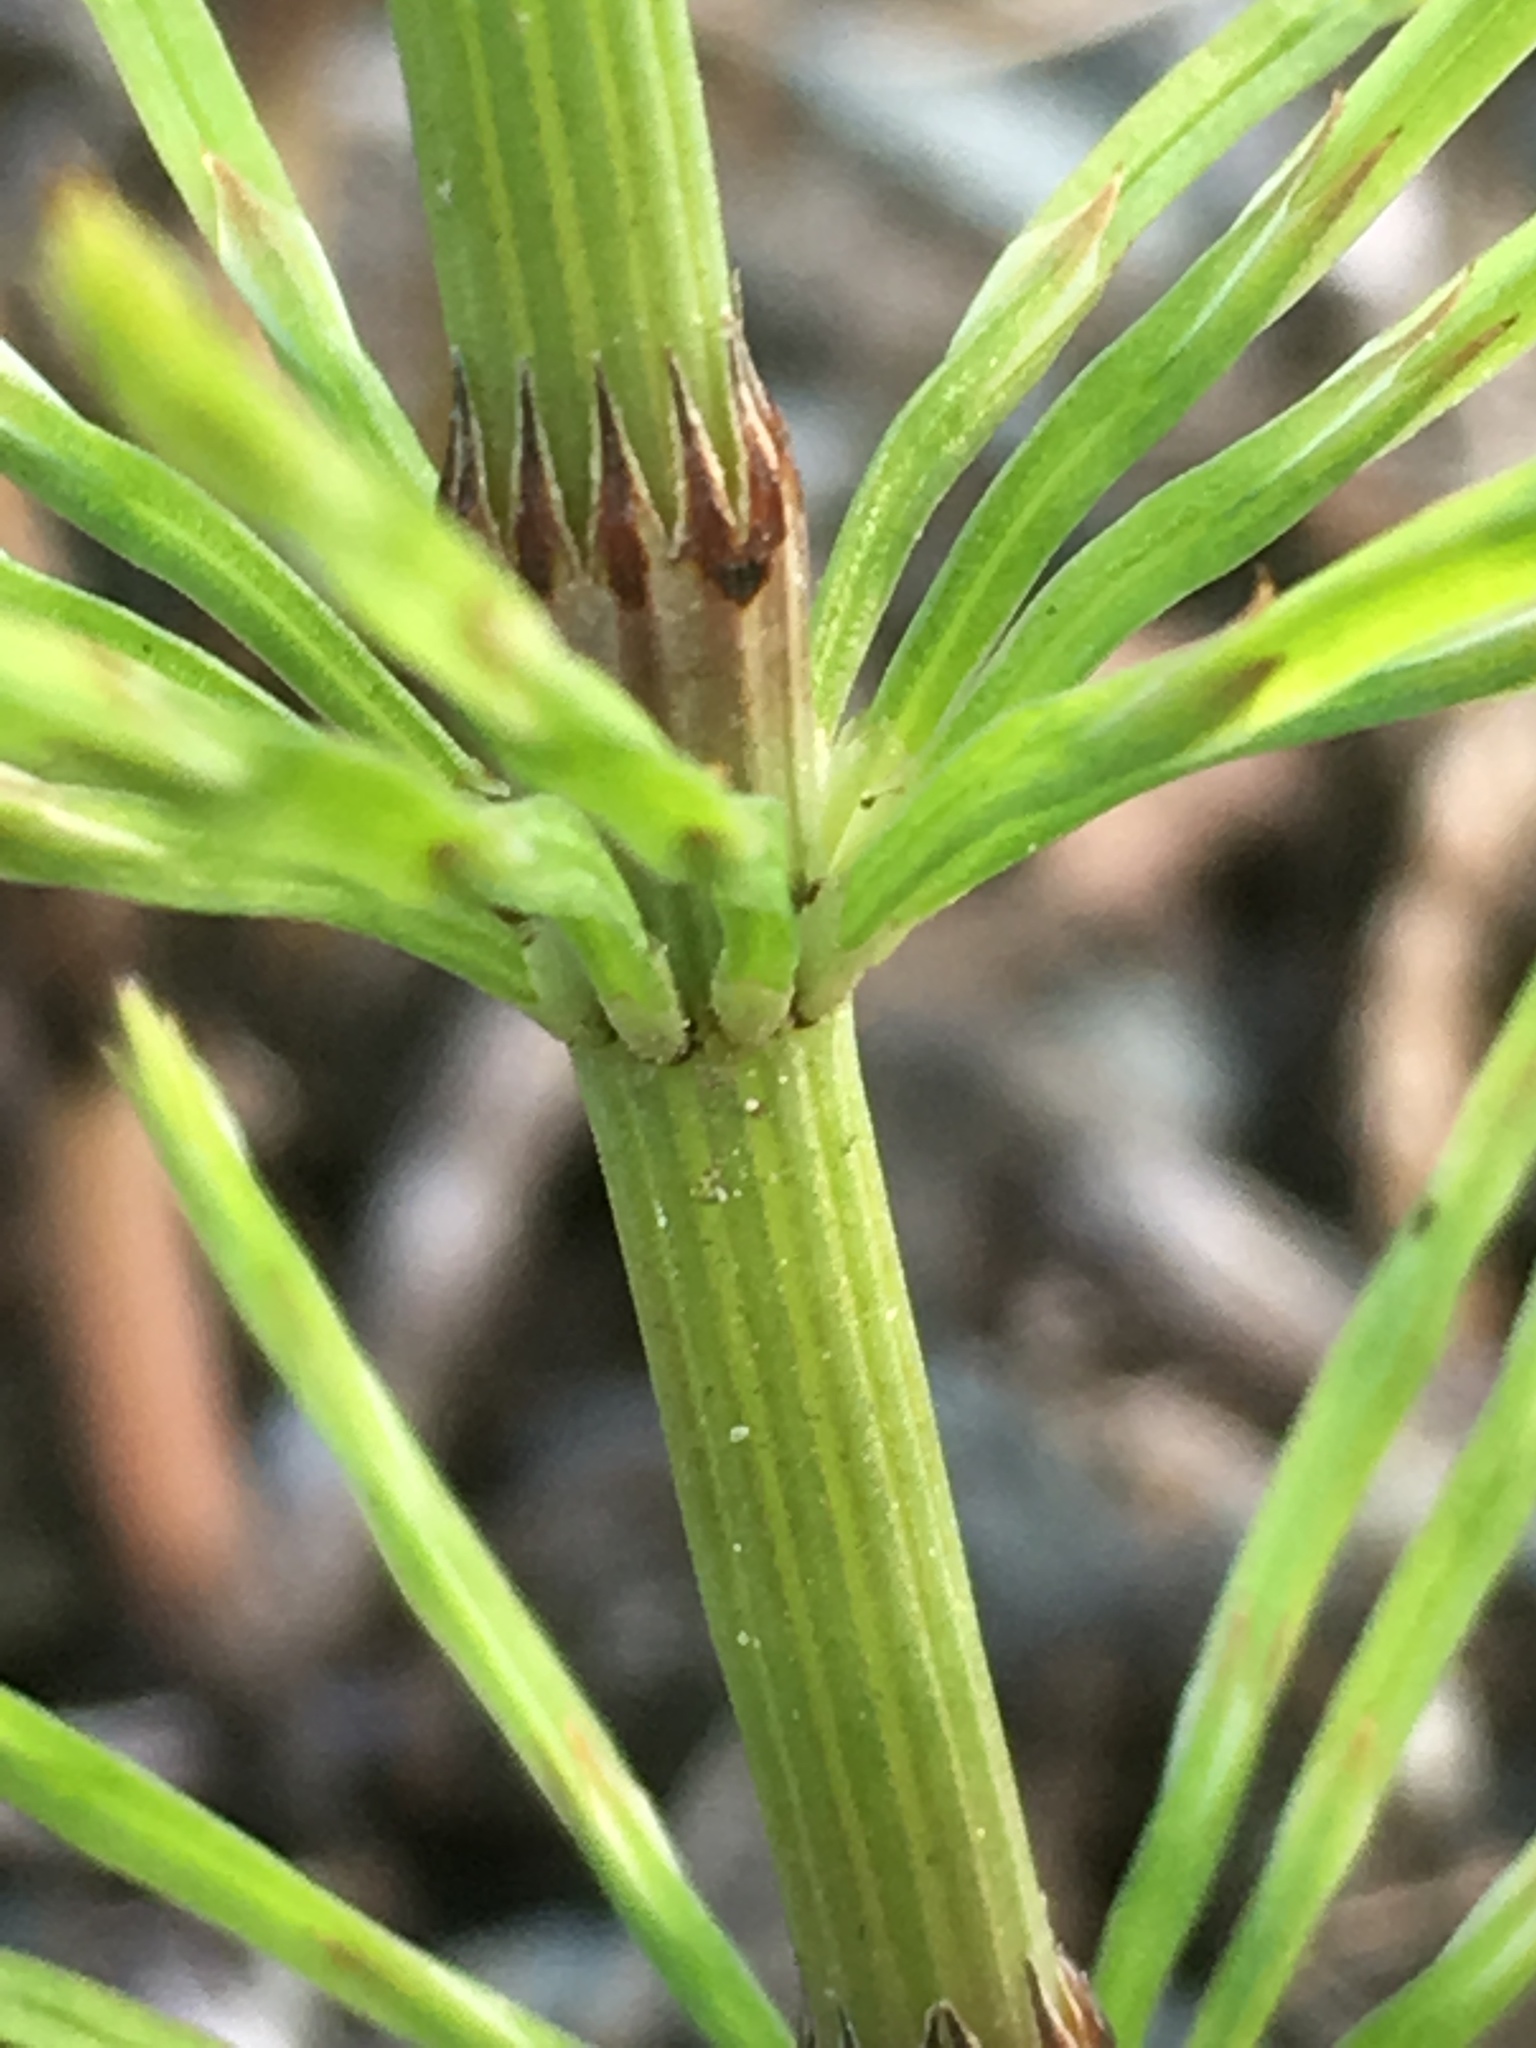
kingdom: Plantae
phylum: Tracheophyta
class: Polypodiopsida
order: Equisetales
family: Equisetaceae
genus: Equisetum
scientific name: Equisetum arvense
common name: Field horsetail
